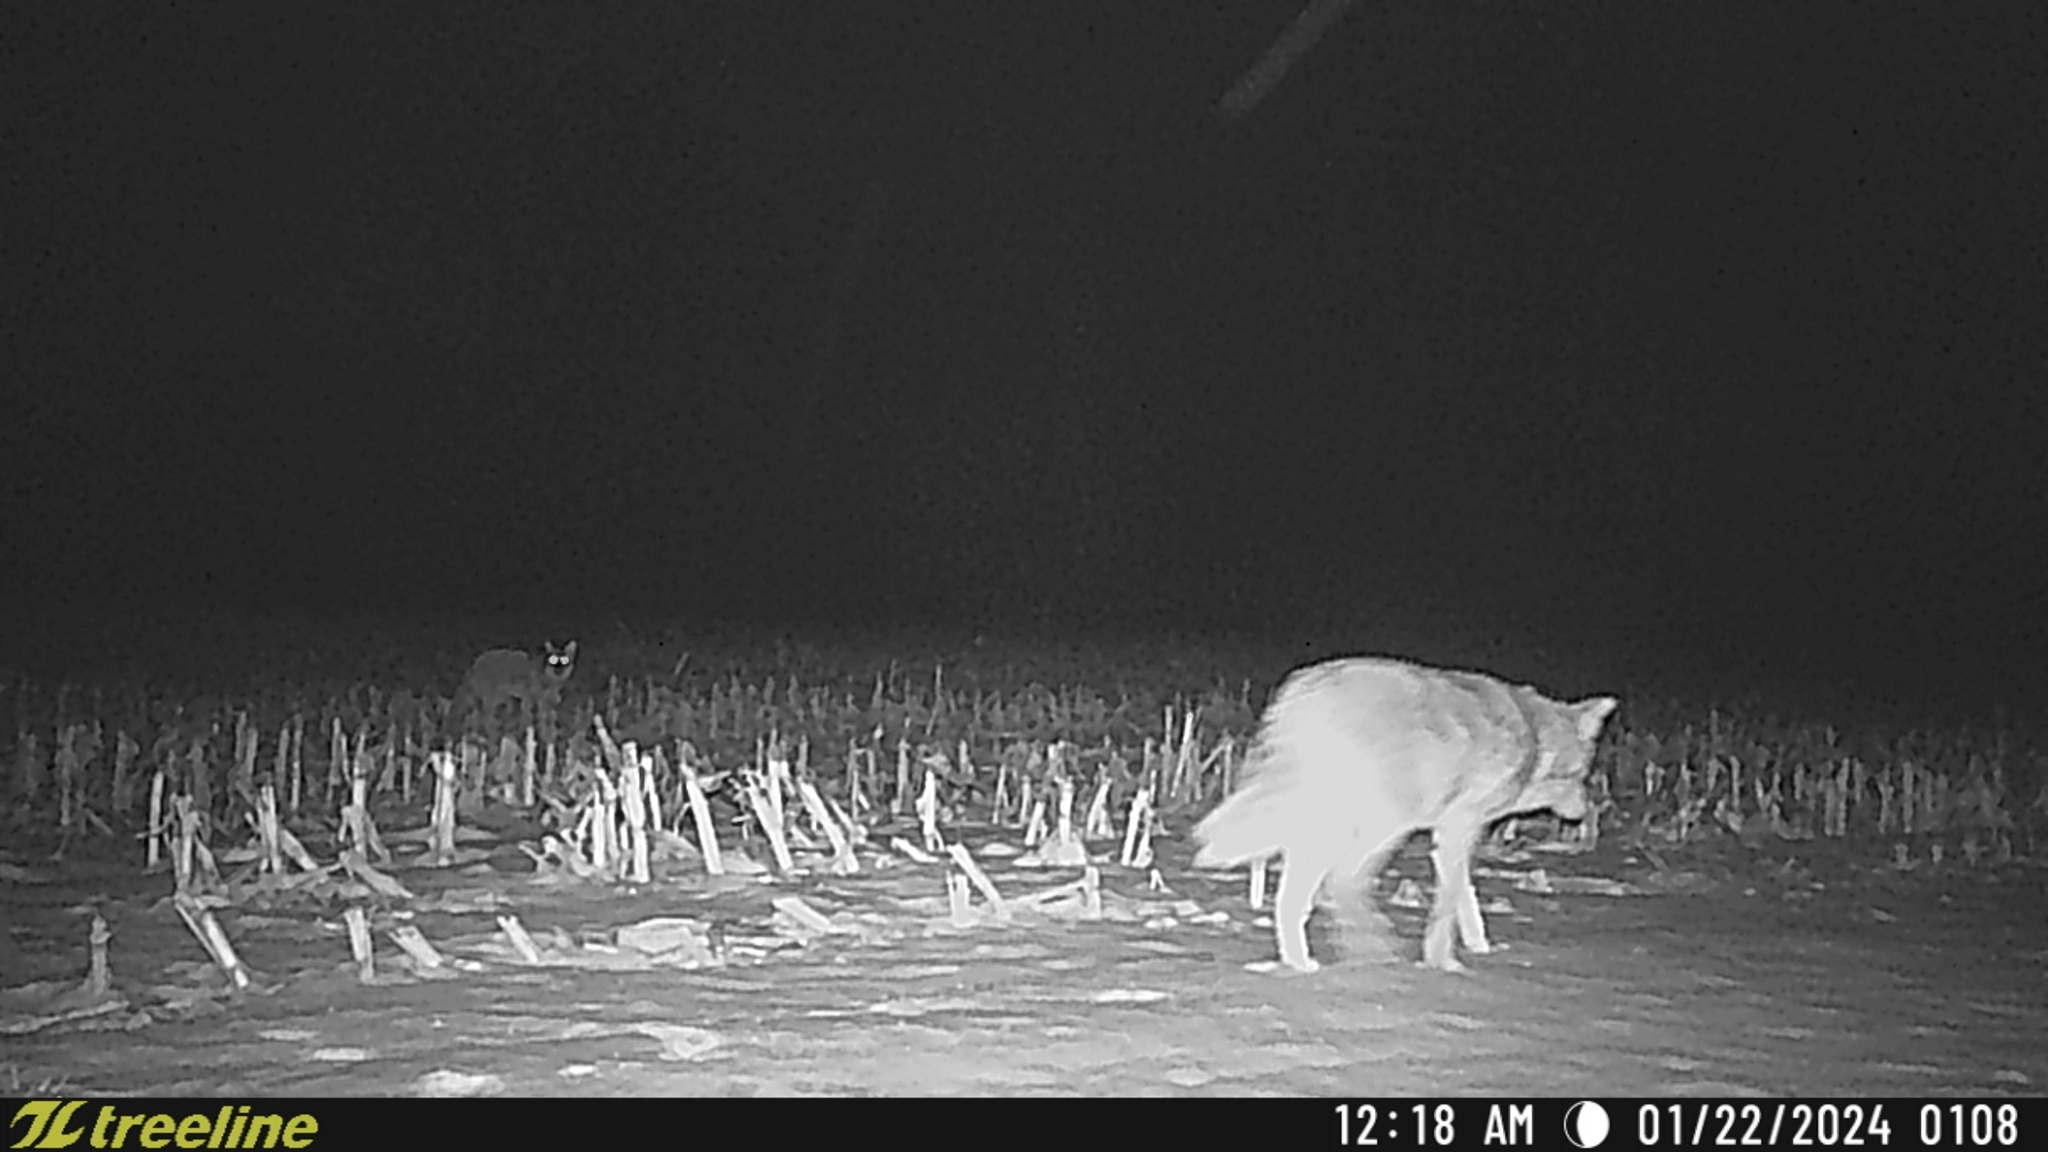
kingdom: Animalia
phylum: Chordata
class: Mammalia
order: Carnivora
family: Canidae
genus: Canis
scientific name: Canis latrans
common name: Coyote
